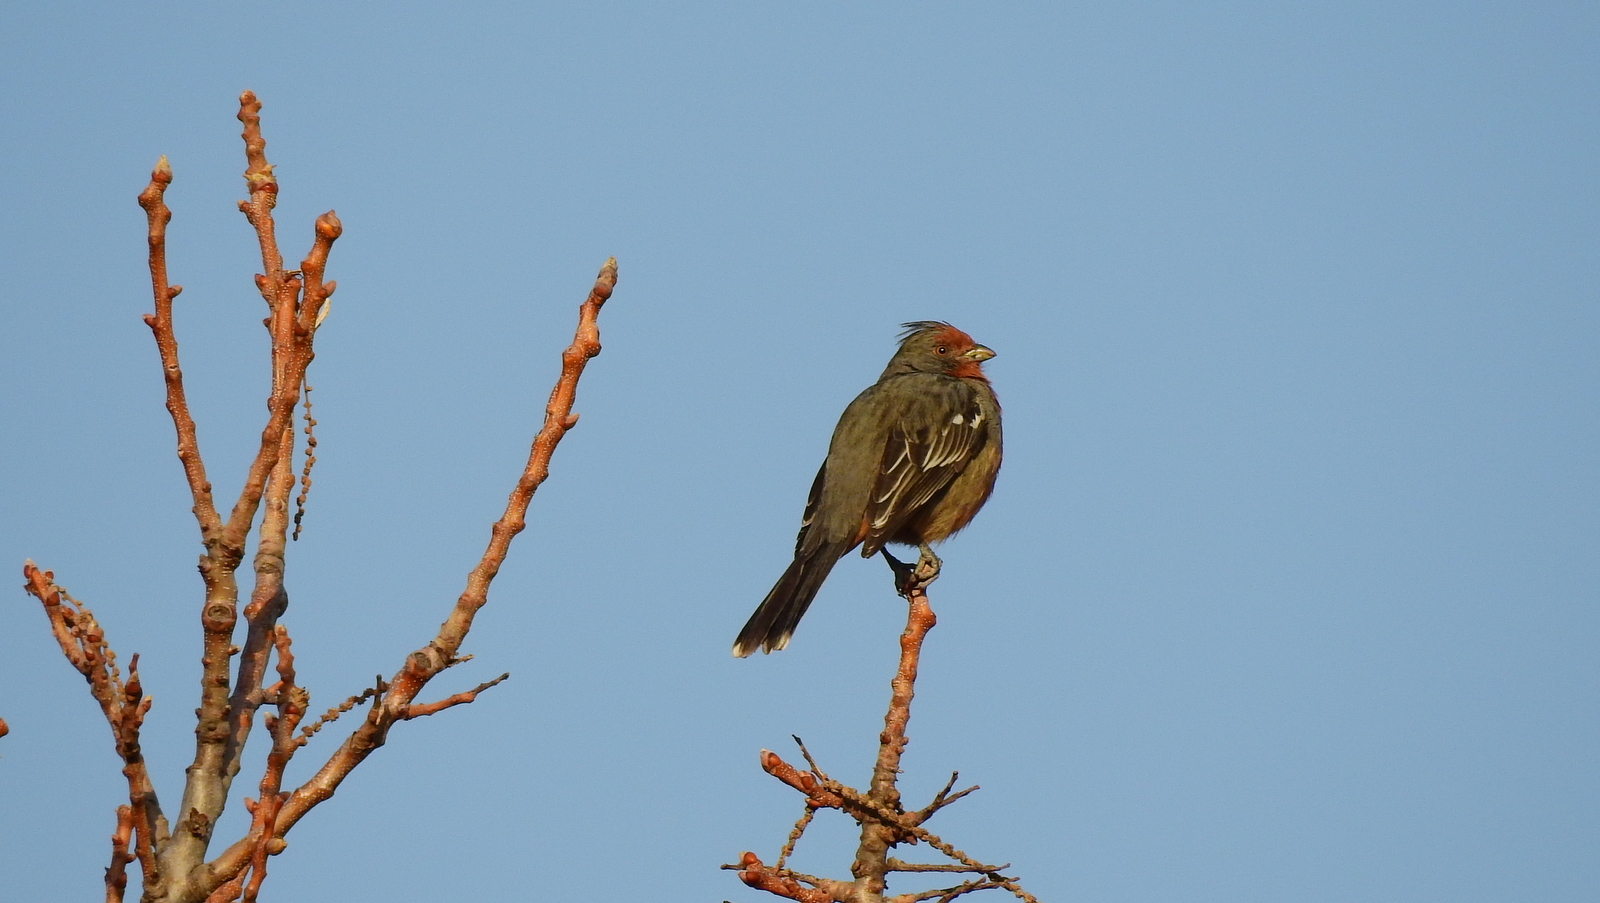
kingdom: Animalia
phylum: Chordata
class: Aves
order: Passeriformes
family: Cotingidae
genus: Phytotoma
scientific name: Phytotoma rutila
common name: White-tipped plantcutter
